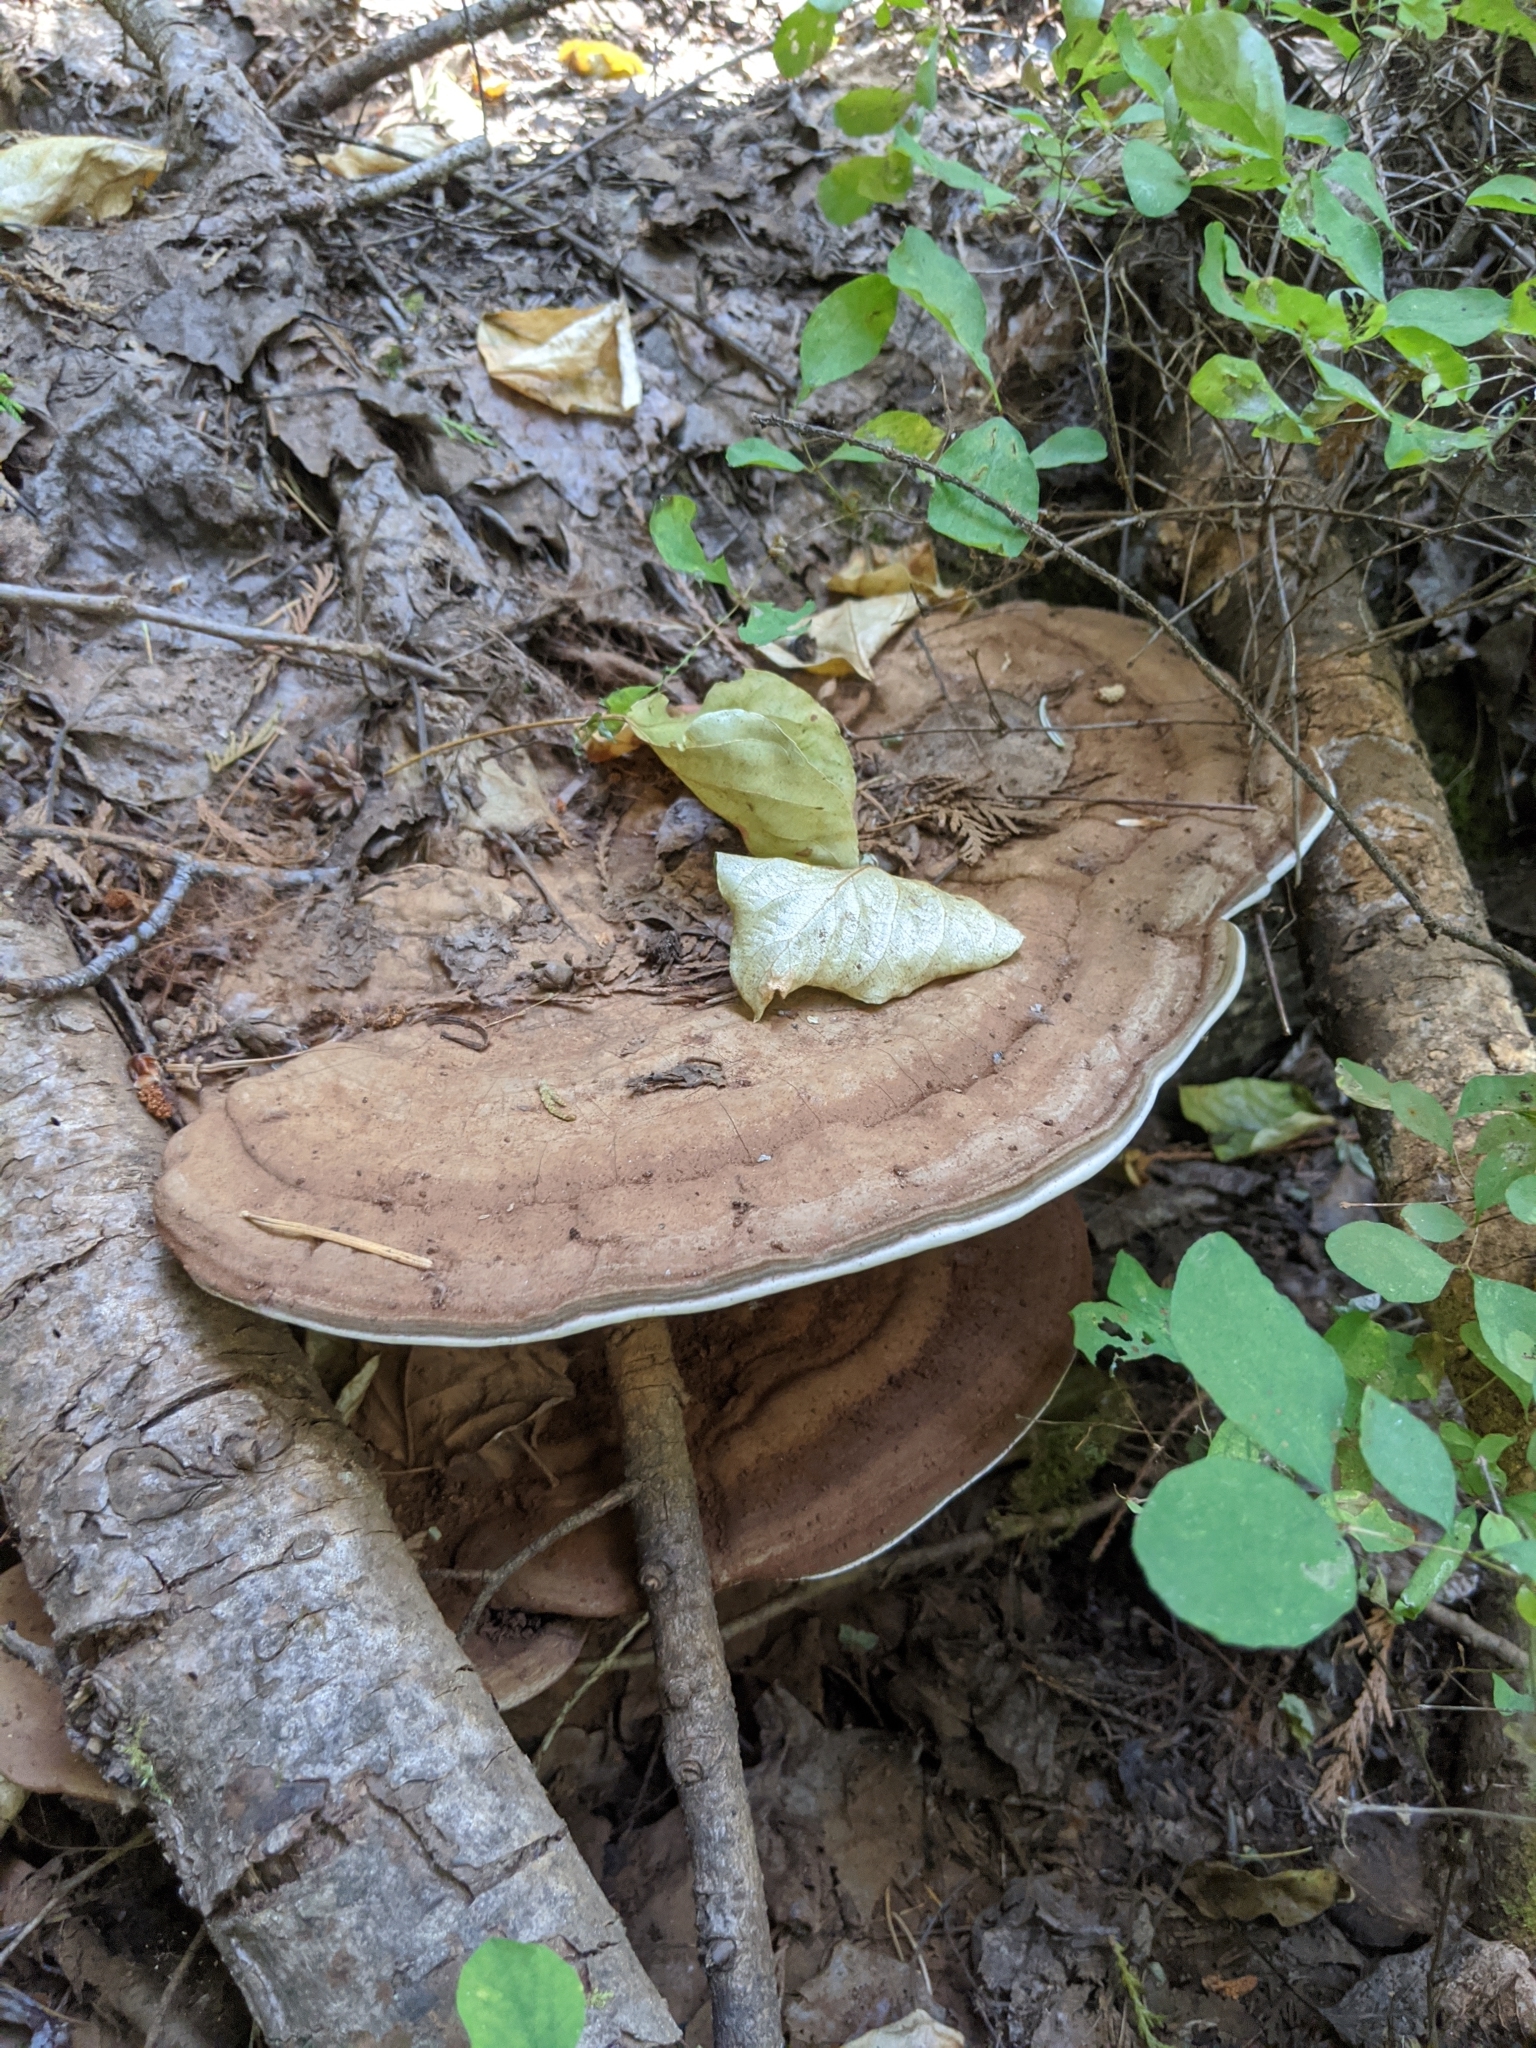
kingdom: Fungi
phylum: Basidiomycota
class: Agaricomycetes
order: Polyporales
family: Polyporaceae
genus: Ganoderma
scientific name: Ganoderma applanatum
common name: Artist's bracket
